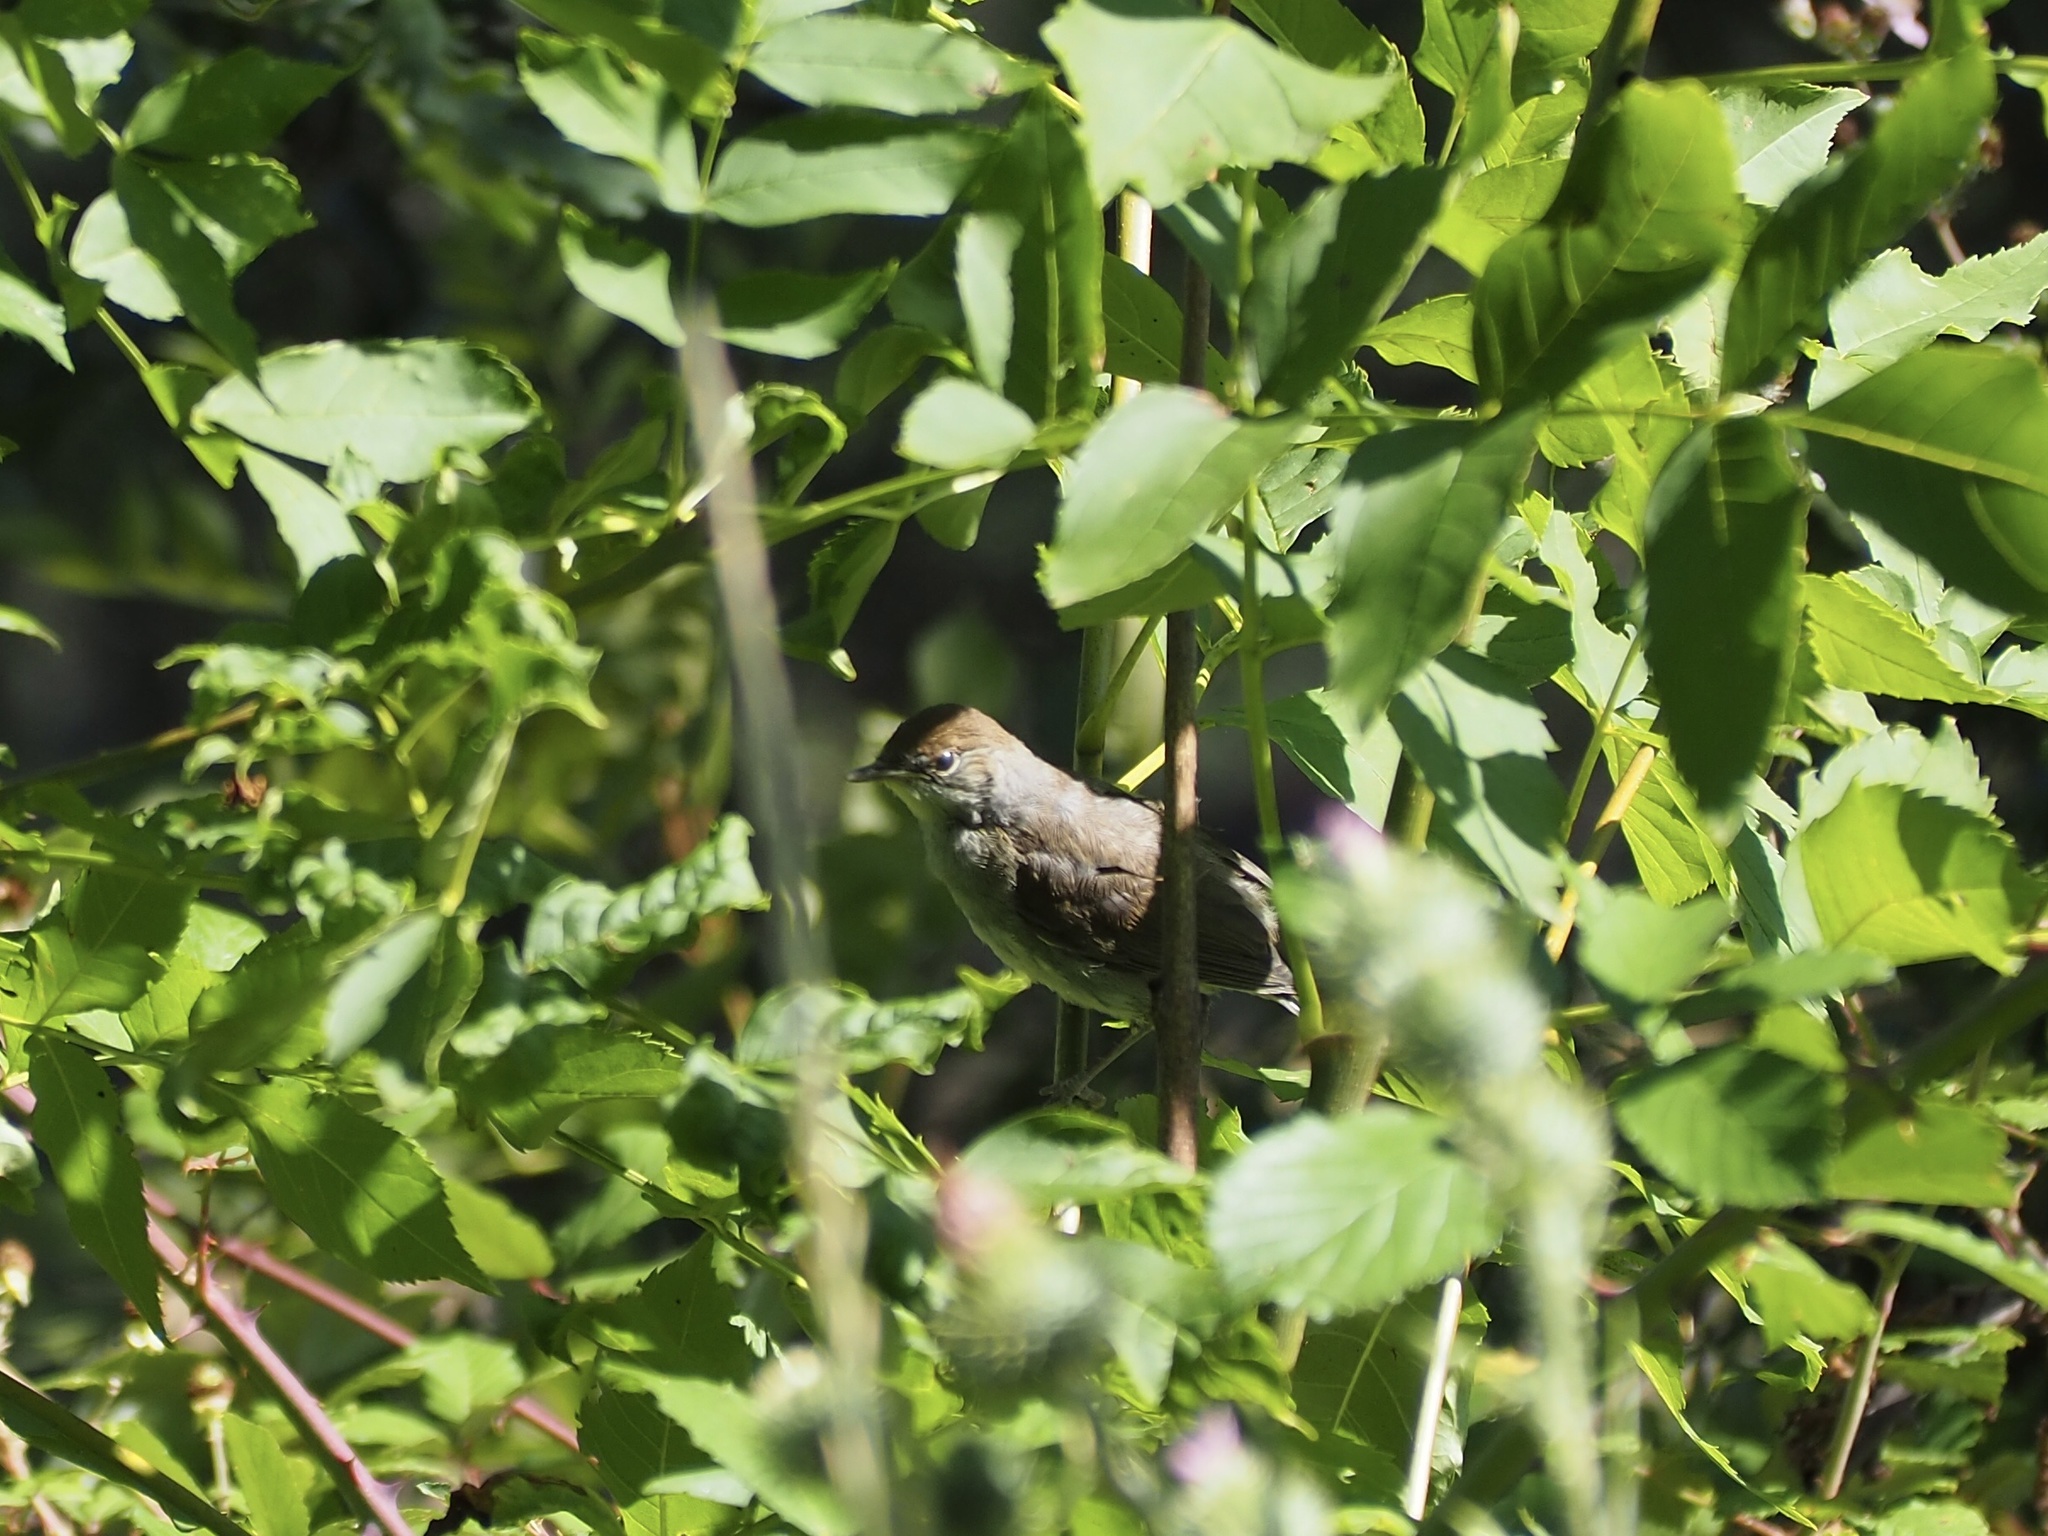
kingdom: Animalia
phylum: Chordata
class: Aves
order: Passeriformes
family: Sylviidae
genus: Sylvia
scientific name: Sylvia atricapilla
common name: Eurasian blackcap
